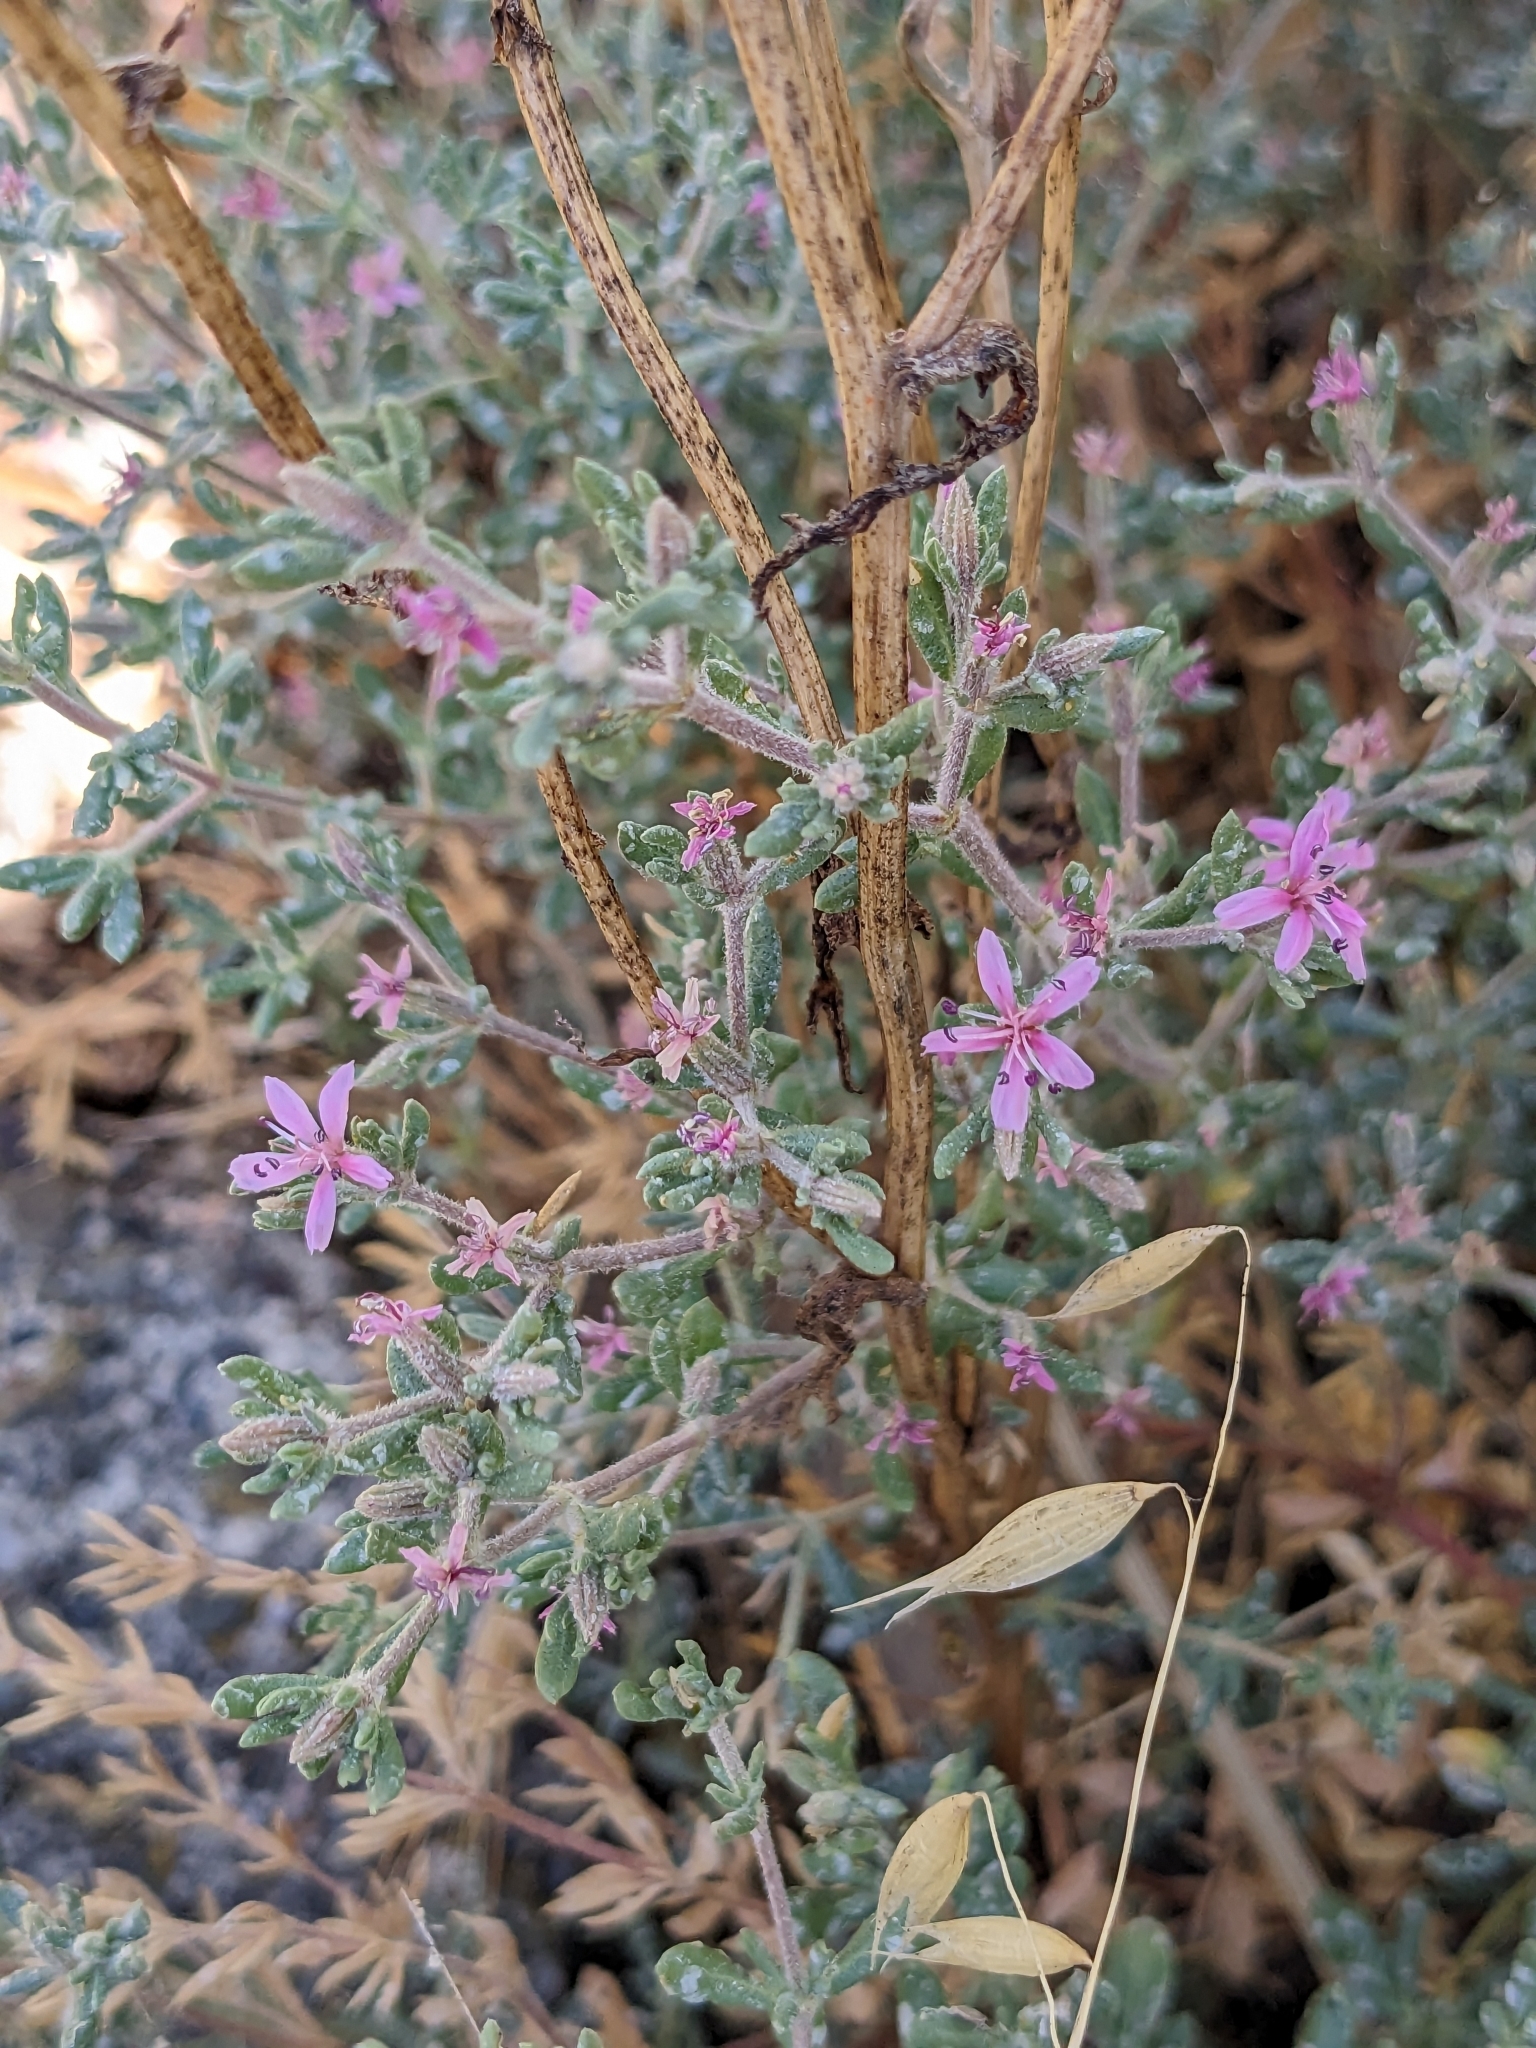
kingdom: Plantae
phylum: Tracheophyta
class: Magnoliopsida
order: Caryophyllales
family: Frankeniaceae
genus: Frankenia
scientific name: Frankenia salina
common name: Alkali seaheath
